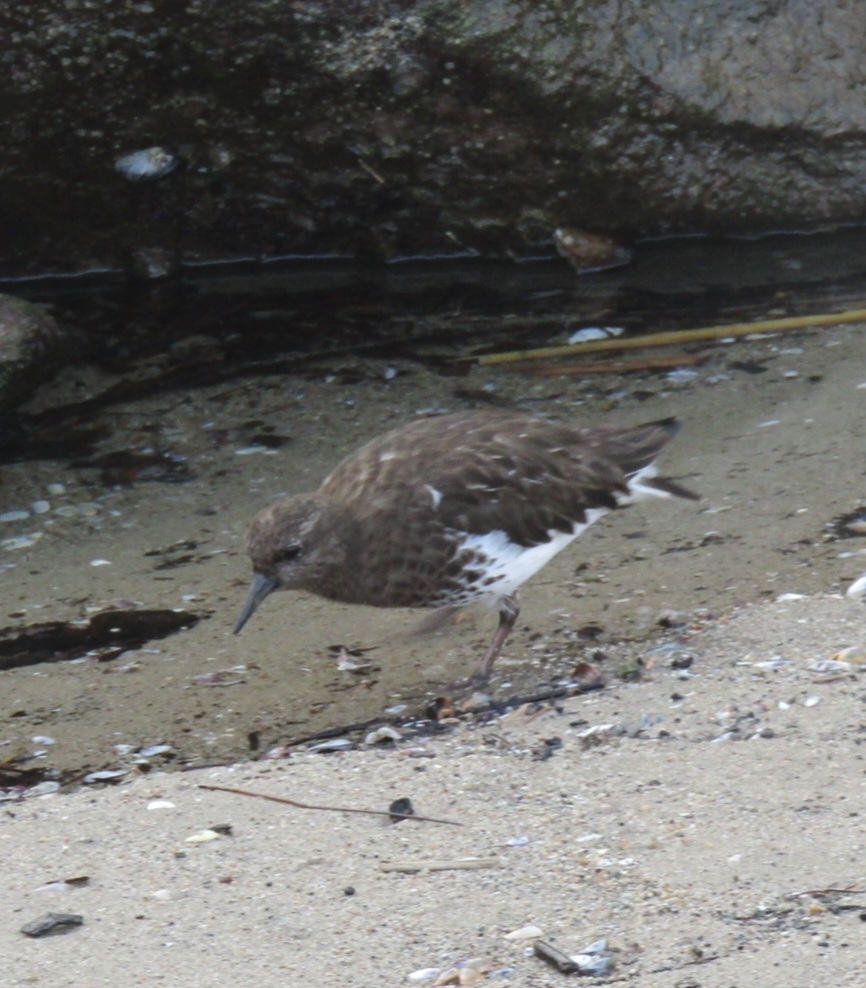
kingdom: Animalia
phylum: Chordata
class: Aves
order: Charadriiformes
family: Scolopacidae
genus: Arenaria
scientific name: Arenaria melanocephala
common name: Black turnstone
